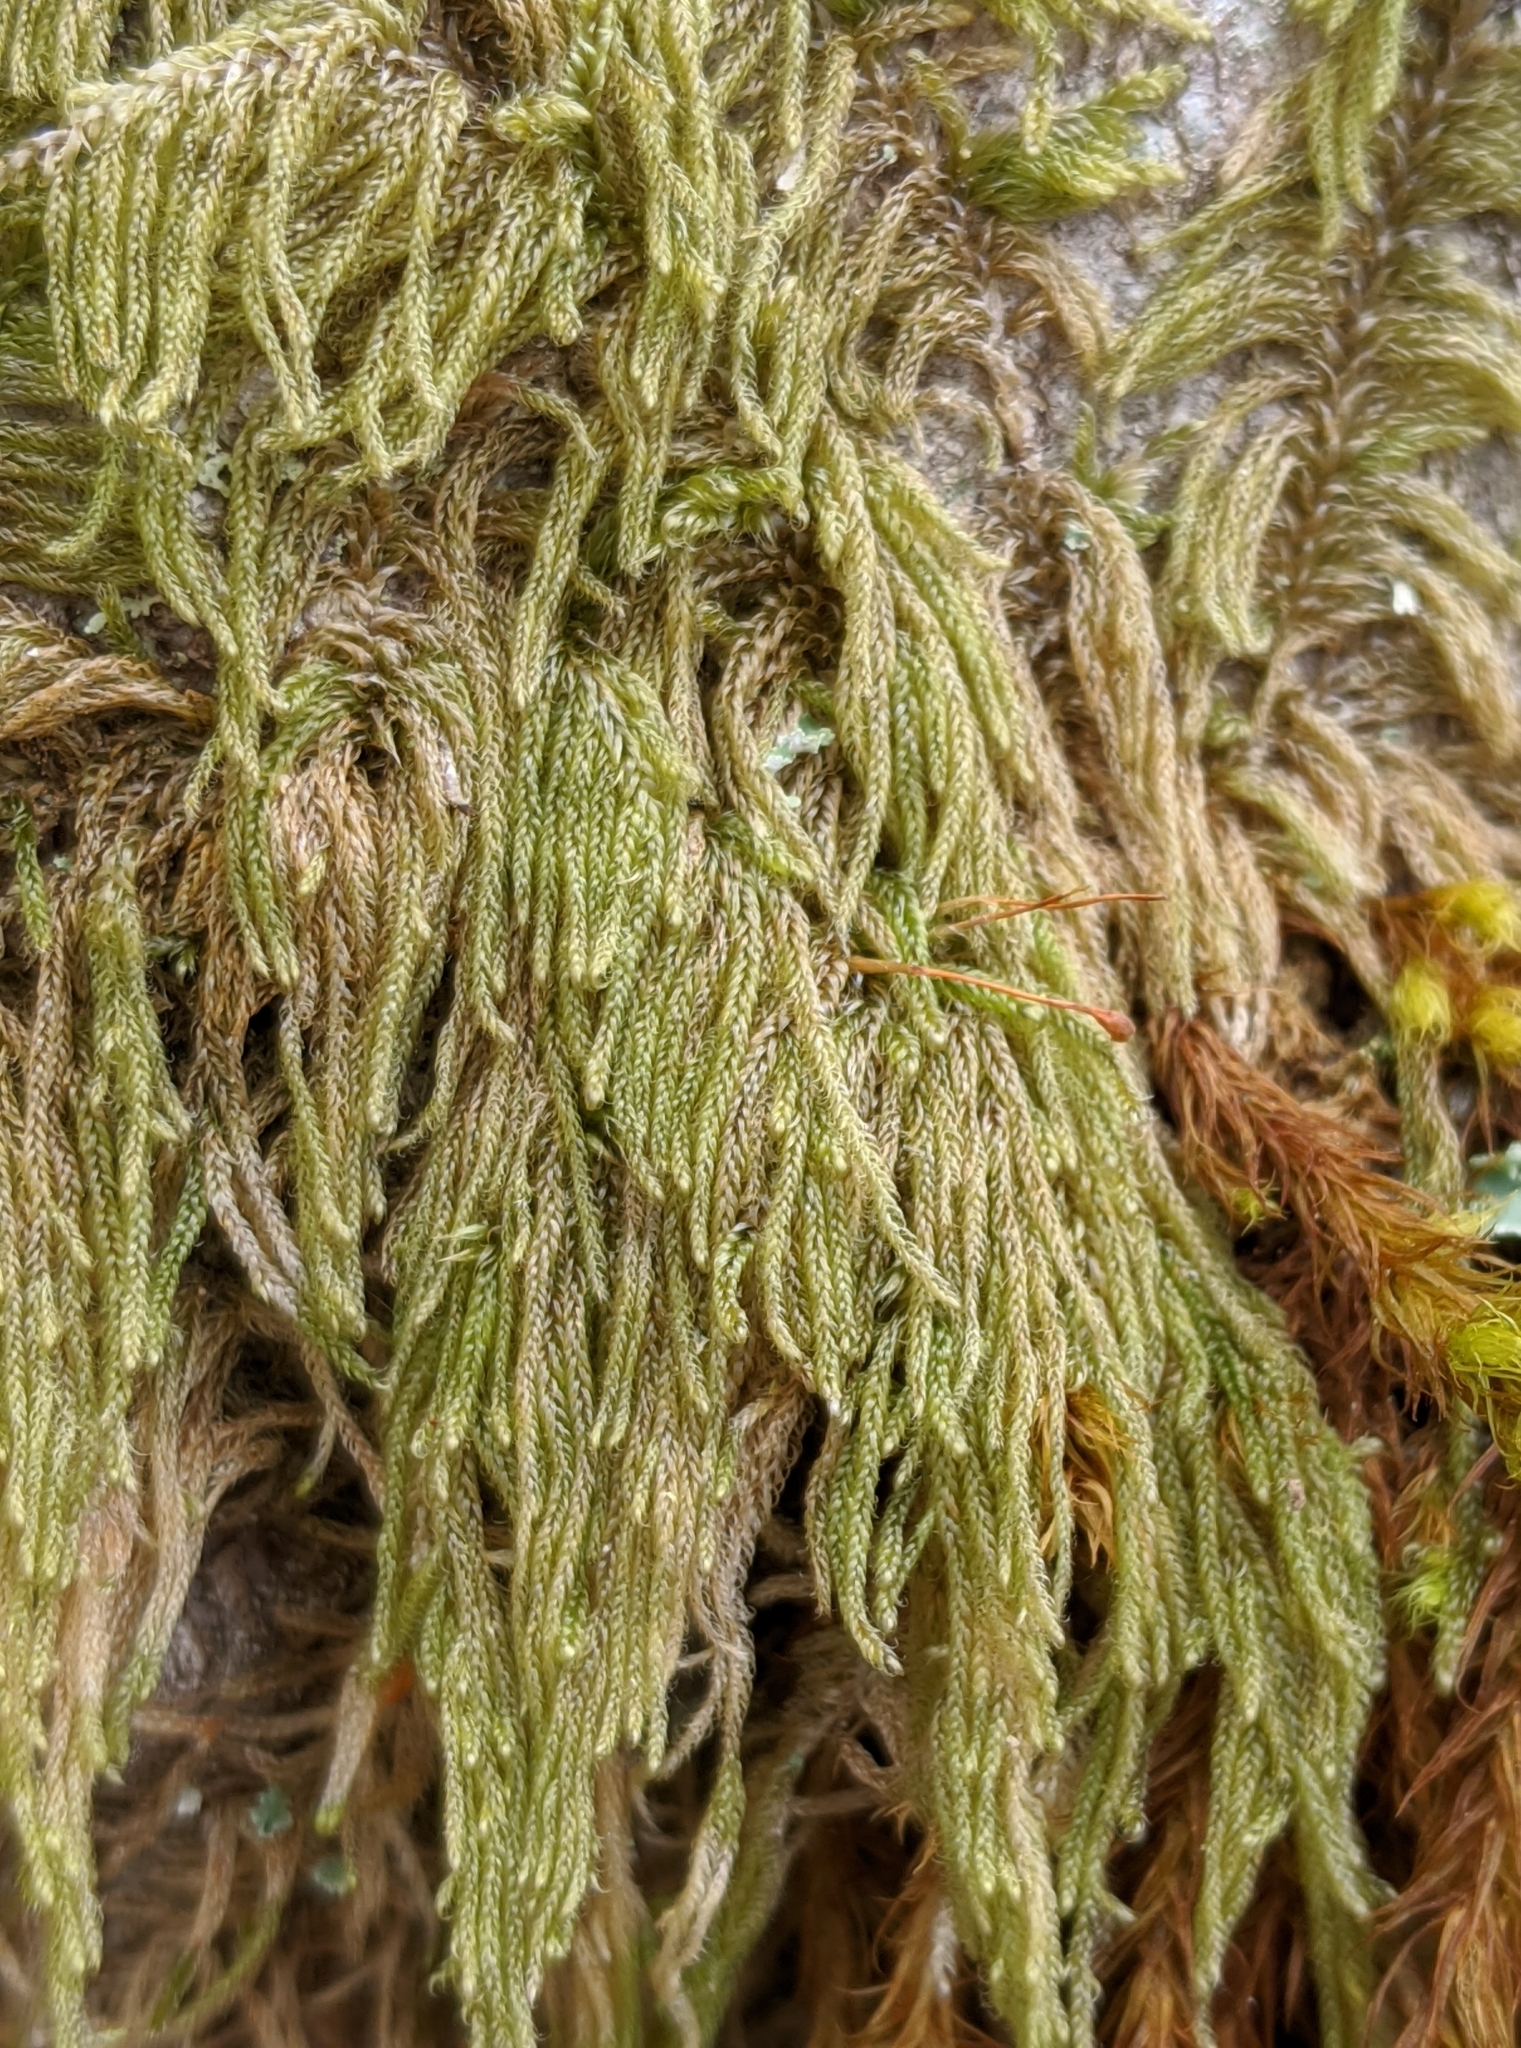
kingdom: Plantae
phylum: Bryophyta
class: Bryopsida
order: Hypnales
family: Pylaisiadelphaceae
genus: Trochophyllohypnum
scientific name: Trochophyllohypnum circinale
